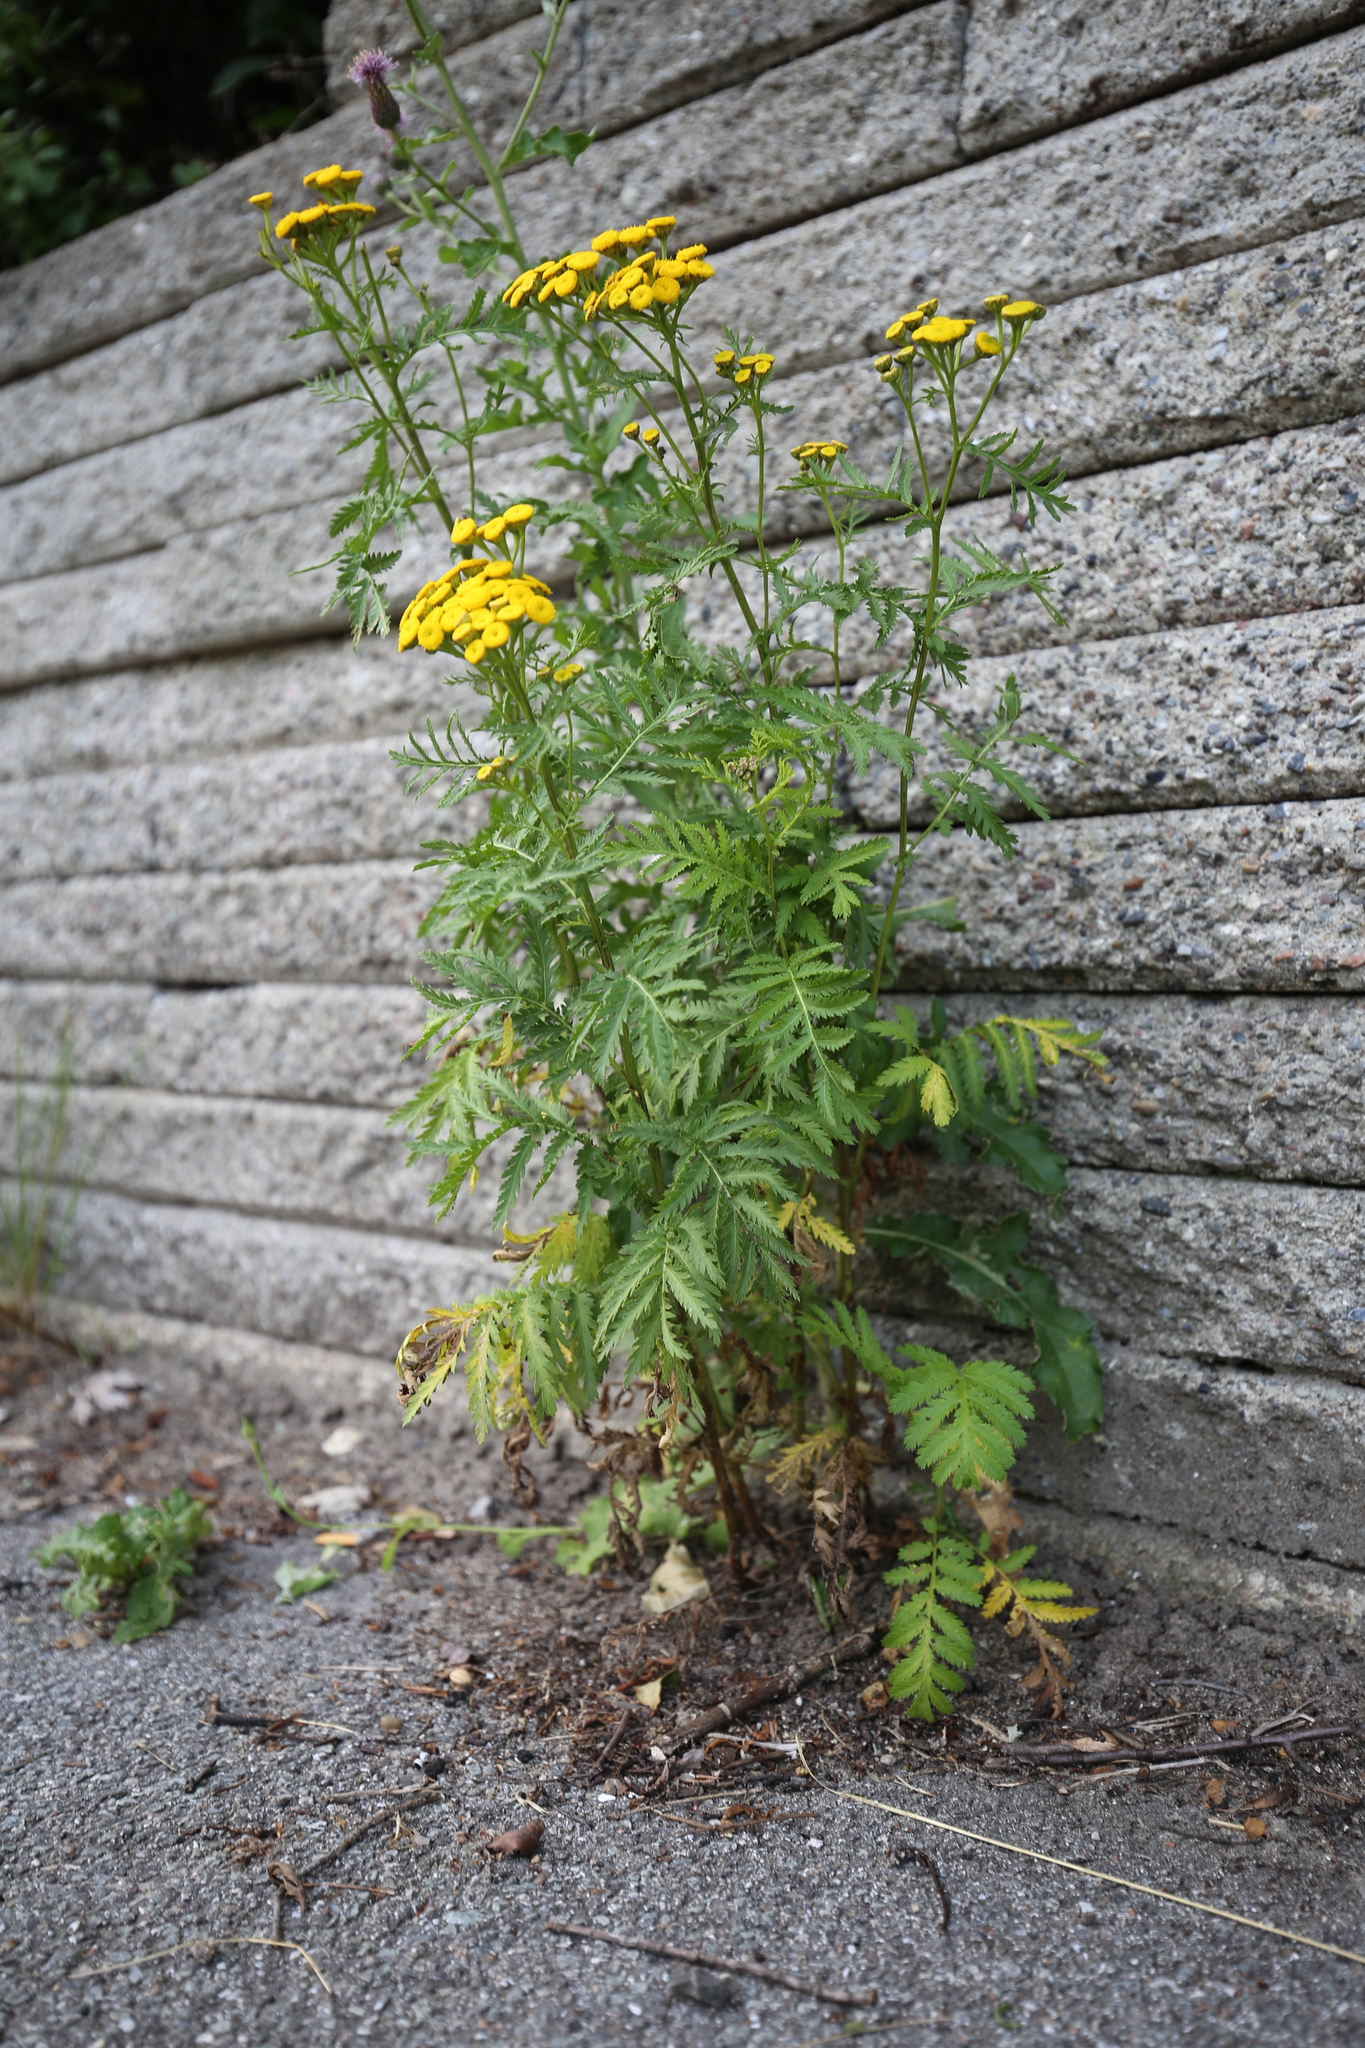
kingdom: Plantae
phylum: Tracheophyta
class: Magnoliopsida
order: Asterales
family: Asteraceae
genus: Tanacetum
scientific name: Tanacetum vulgare
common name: Common tansy
